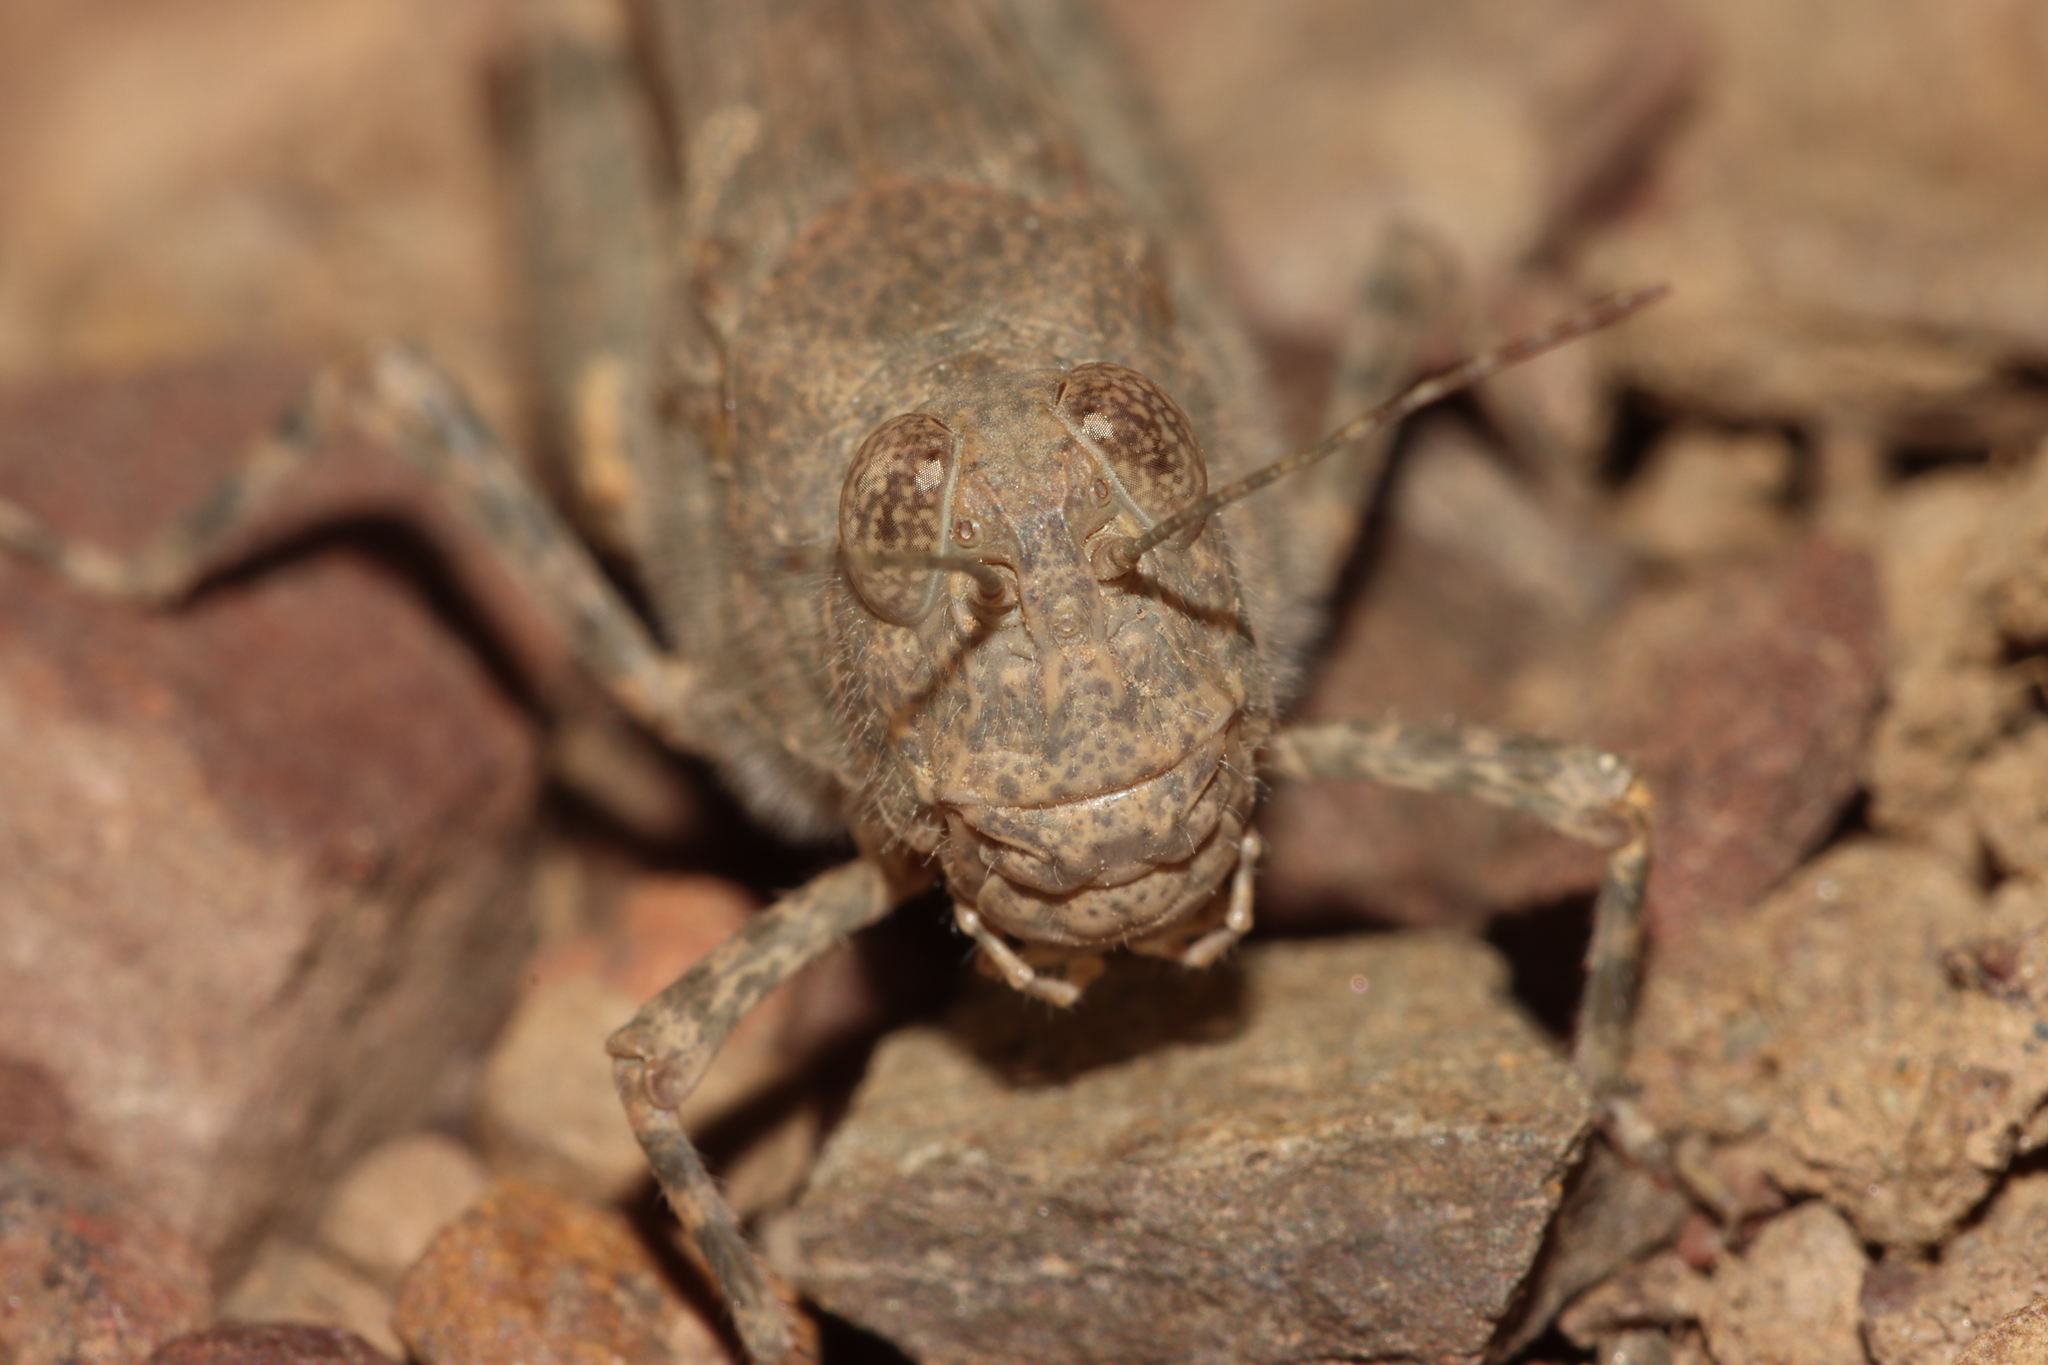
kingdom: Animalia
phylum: Arthropoda
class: Insecta
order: Orthoptera
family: Acrididae
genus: Sphingonotus
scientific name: Sphingonotus rubescens
